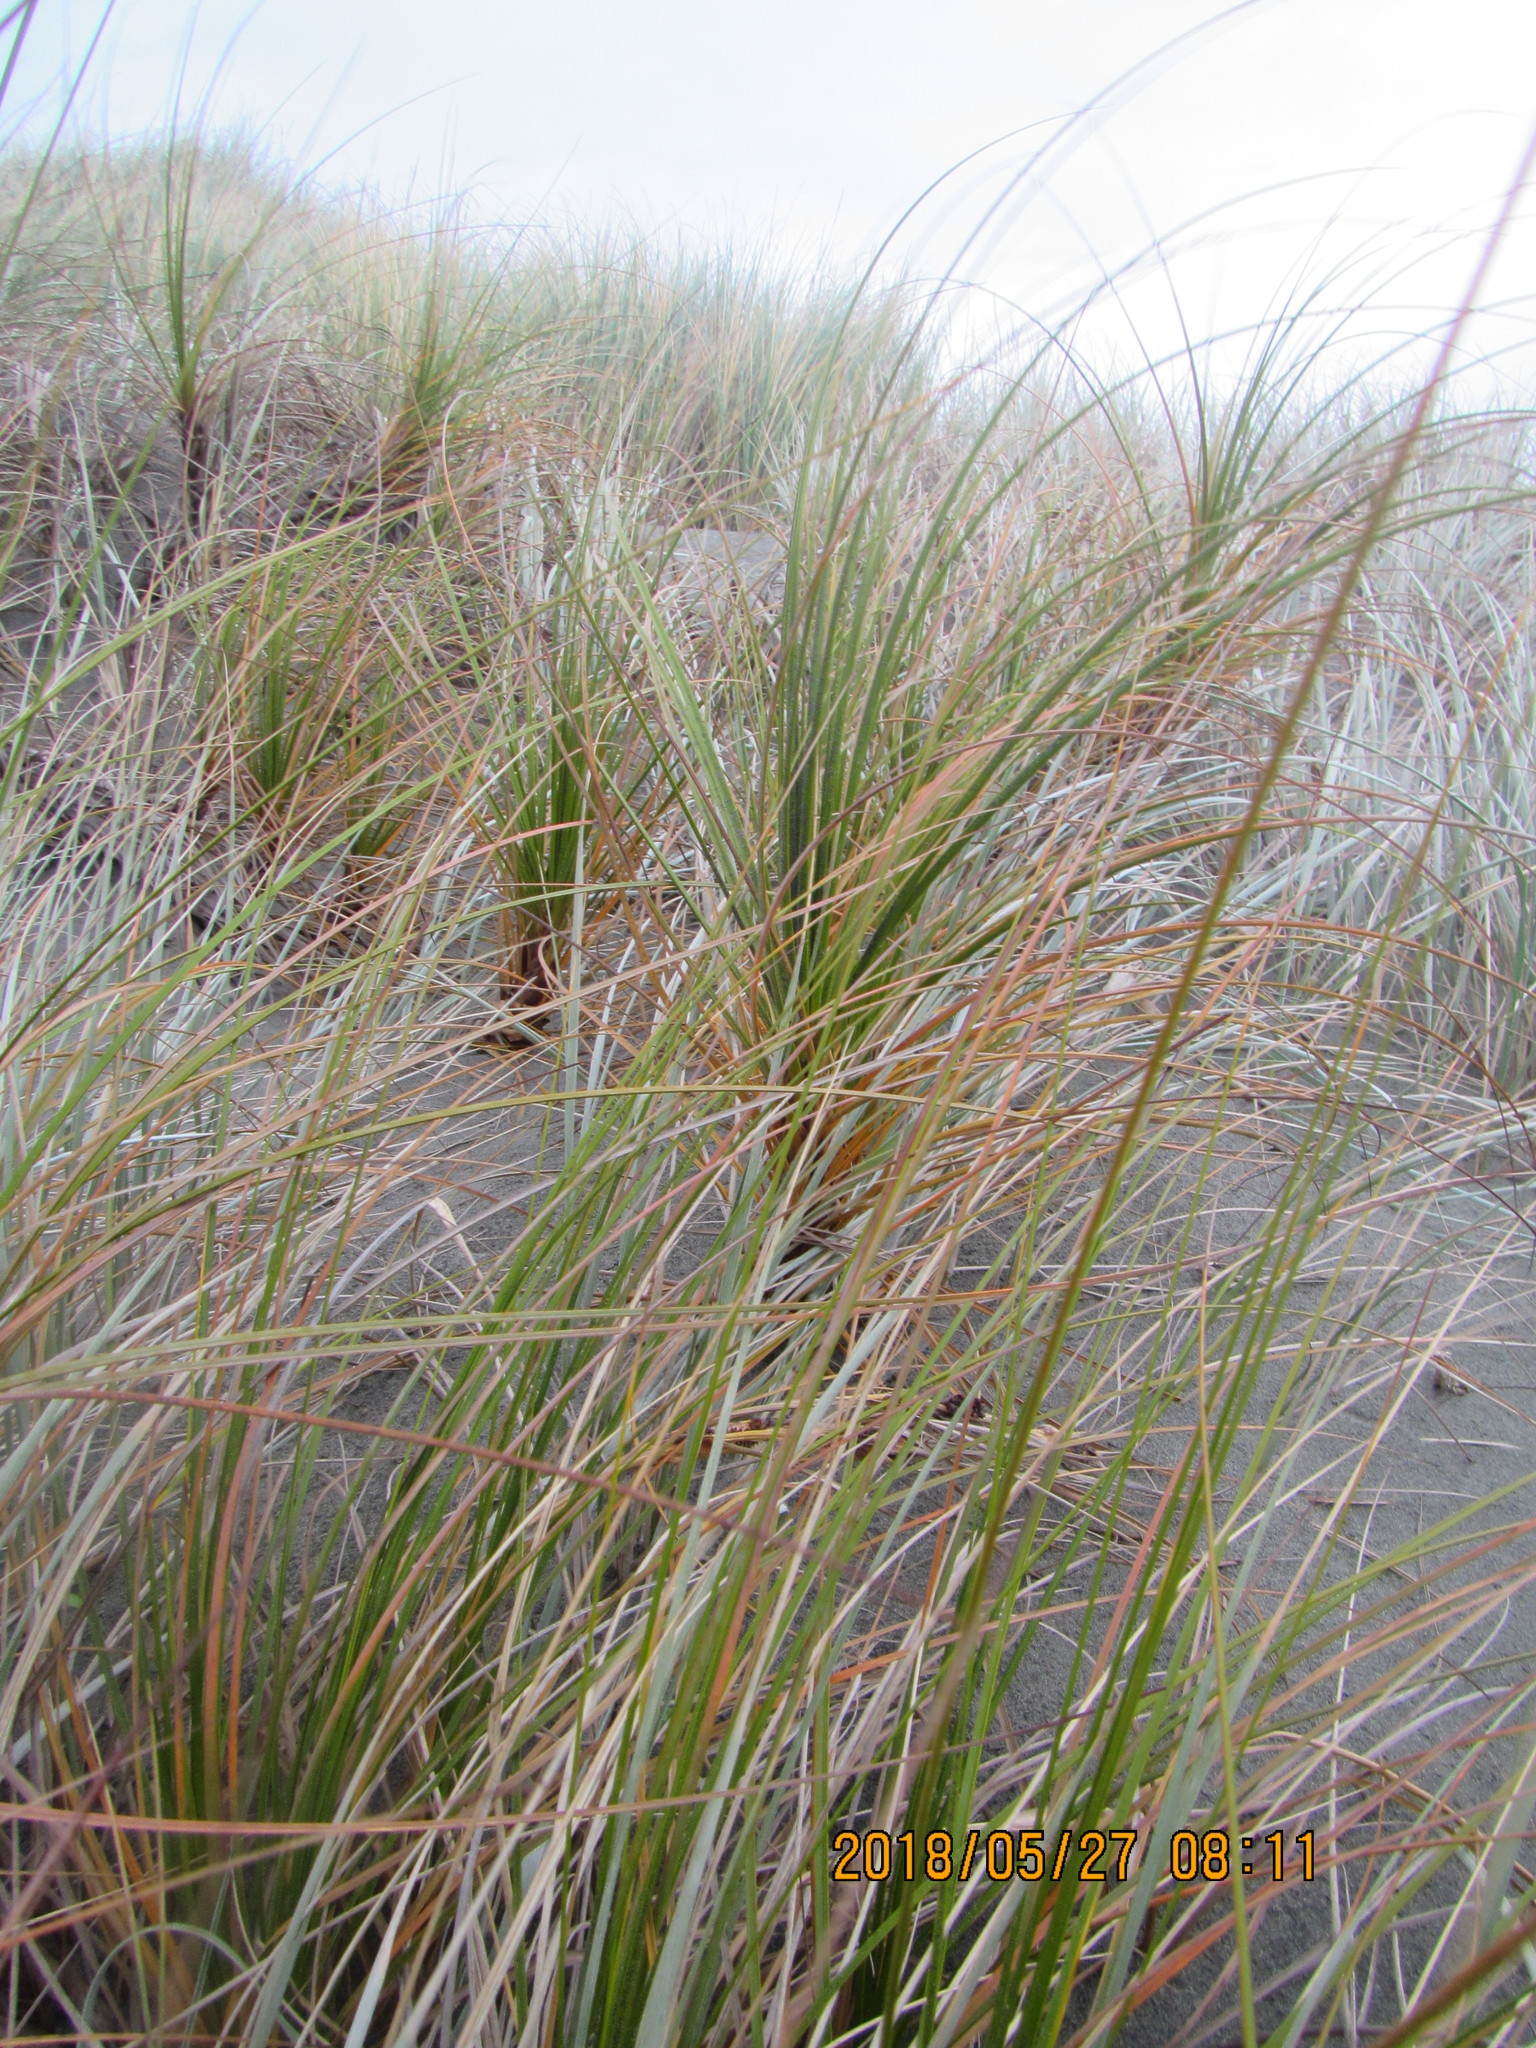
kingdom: Plantae
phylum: Tracheophyta
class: Liliopsida
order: Poales
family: Cyperaceae
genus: Ficinia
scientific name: Ficinia spiralis
